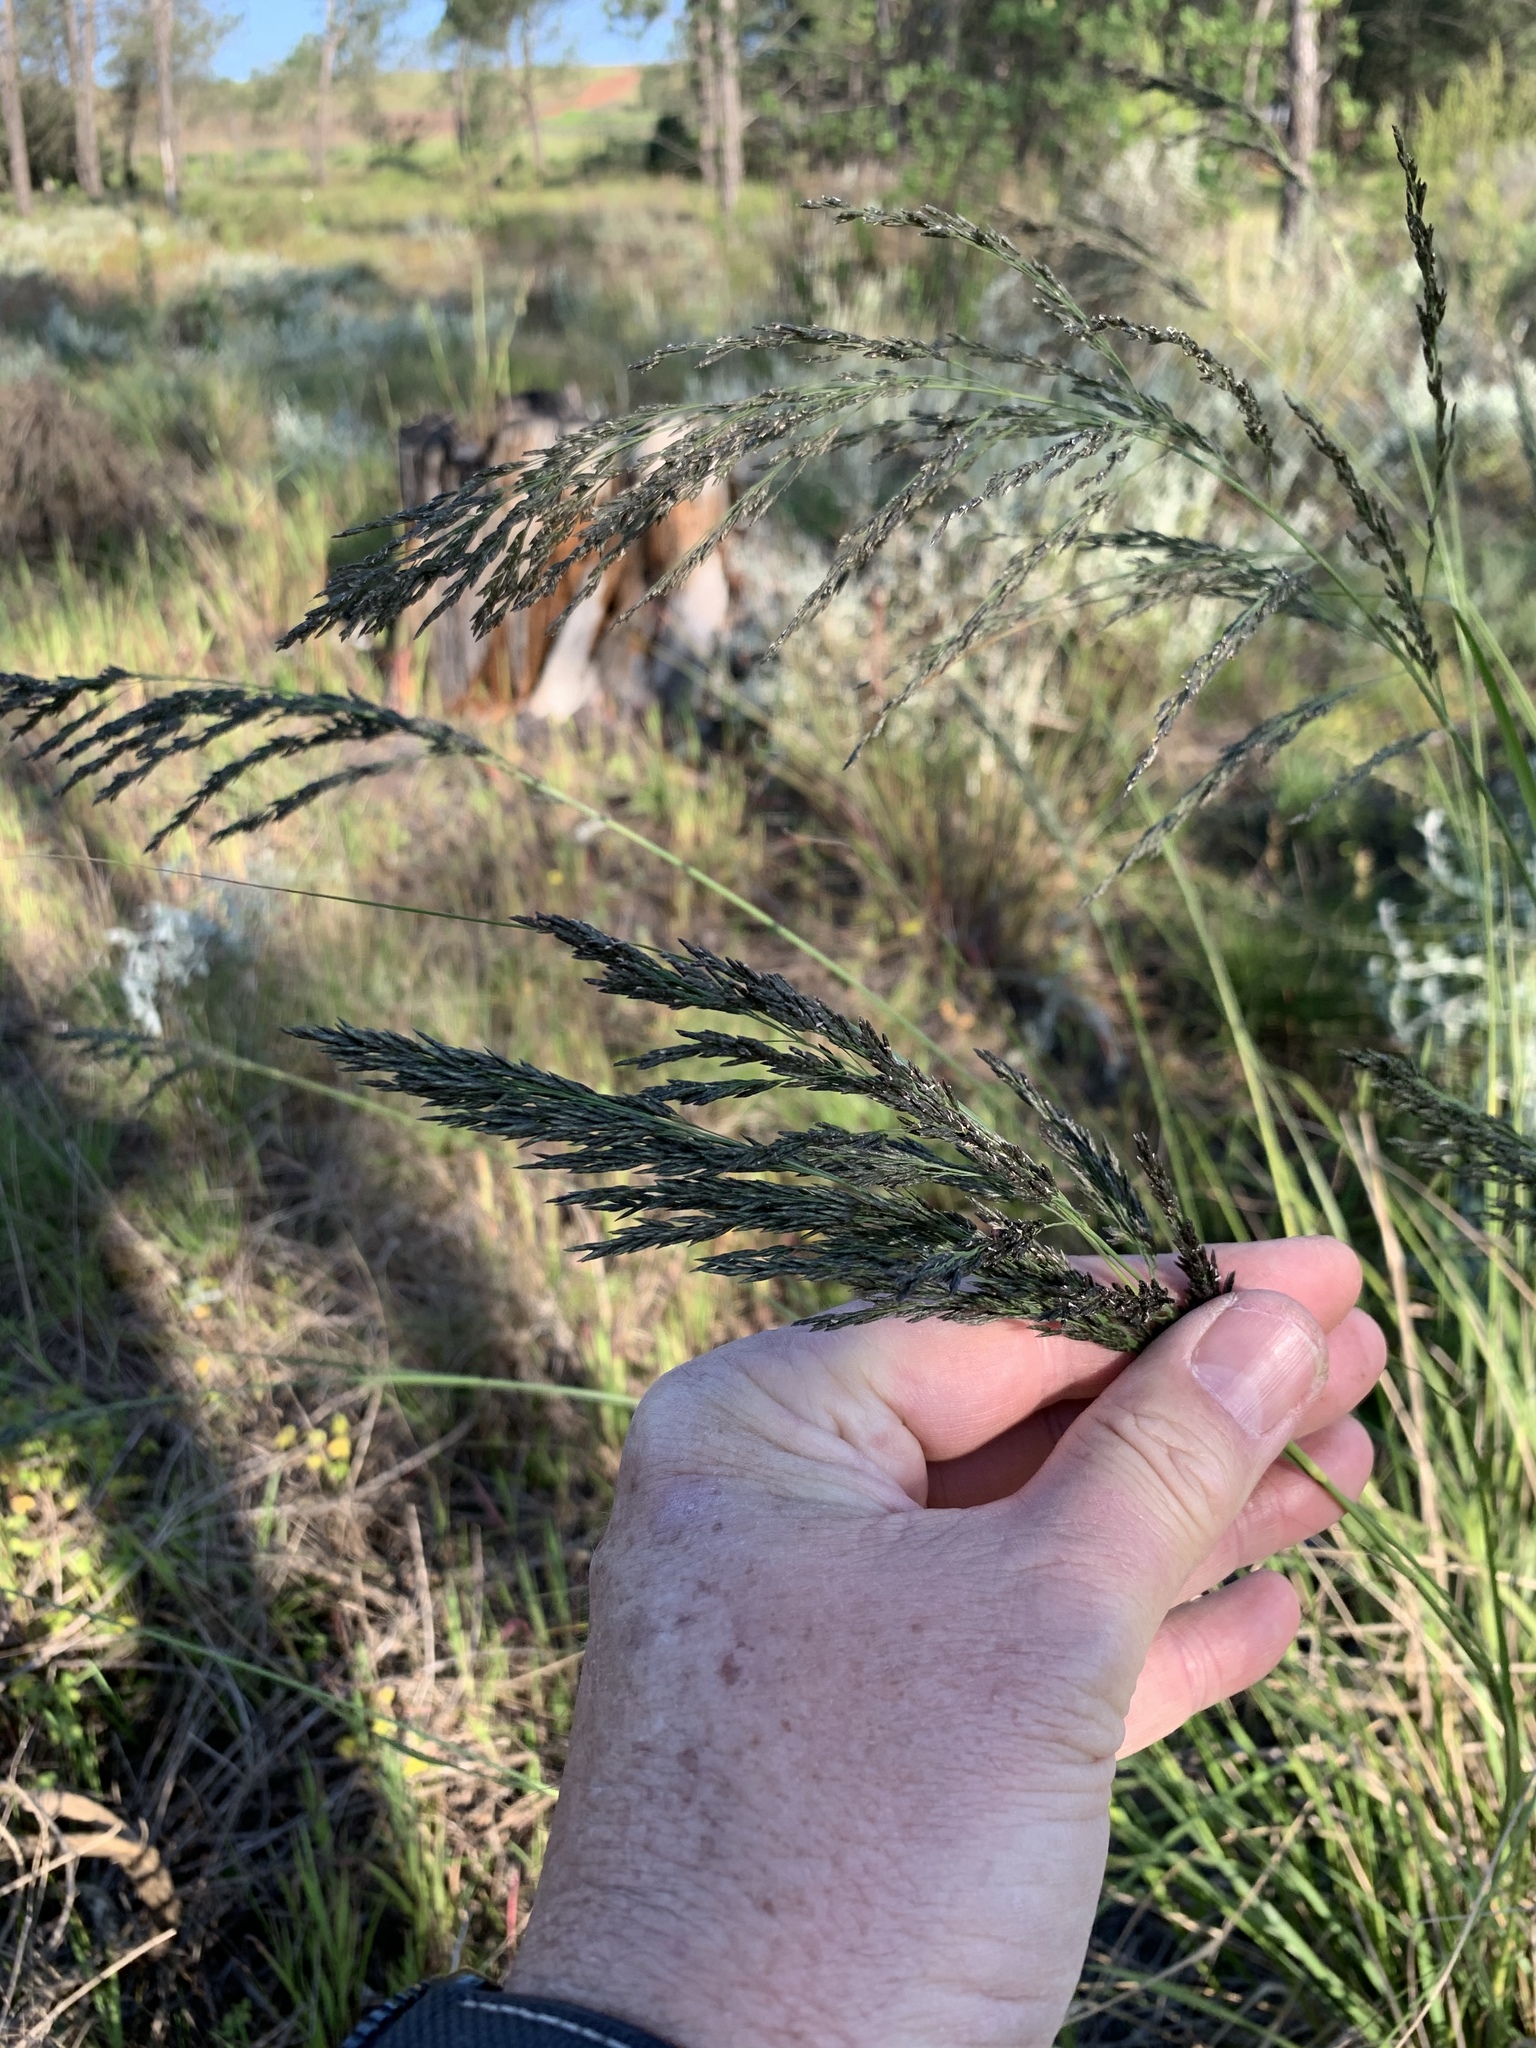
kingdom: Plantae
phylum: Tracheophyta
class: Liliopsida
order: Poales
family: Poaceae
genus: Eragrostis
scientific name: Eragrostis curvula
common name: African love-grass
